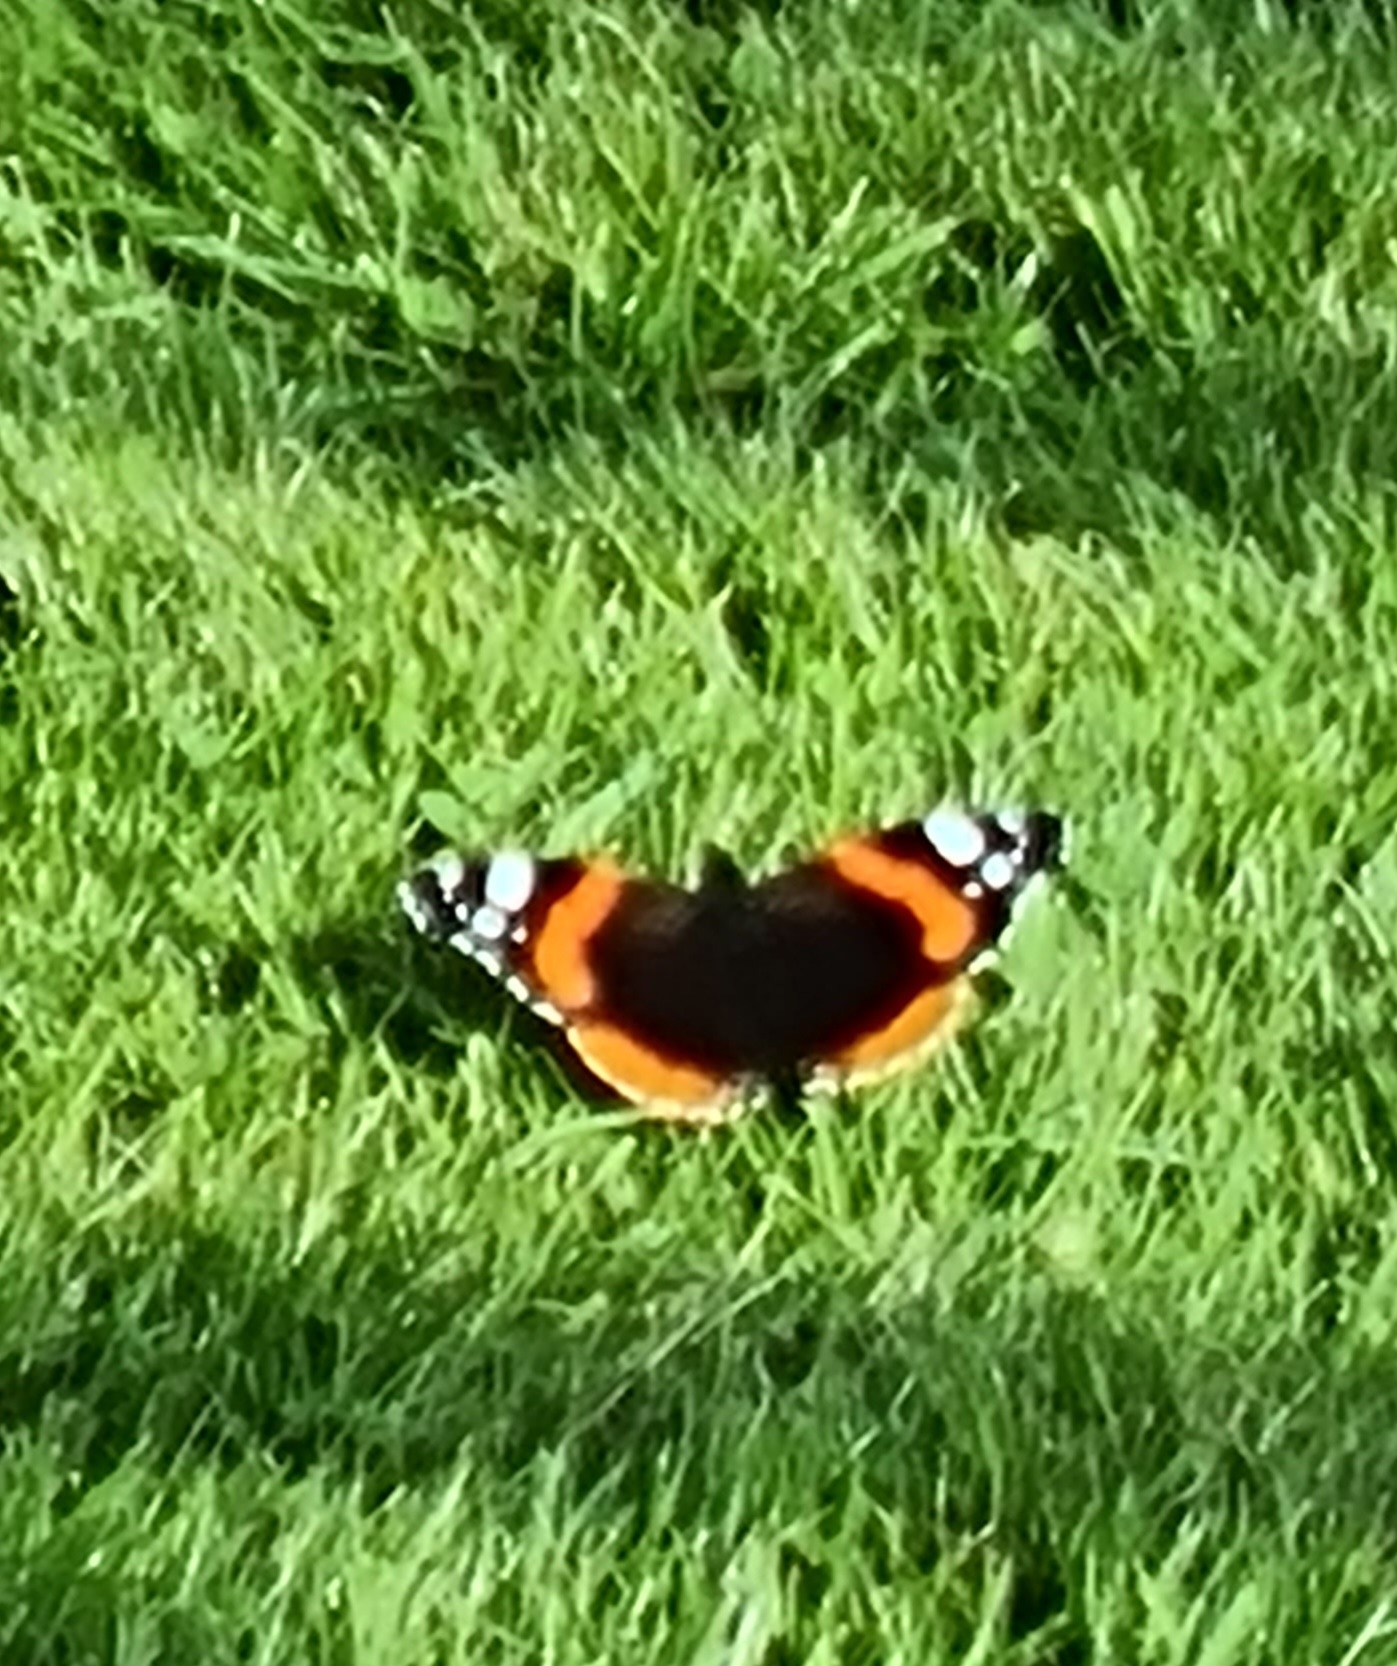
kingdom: Animalia
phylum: Arthropoda
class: Insecta
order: Lepidoptera
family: Nymphalidae
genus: Vanessa
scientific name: Vanessa atalanta
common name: Red admiral
